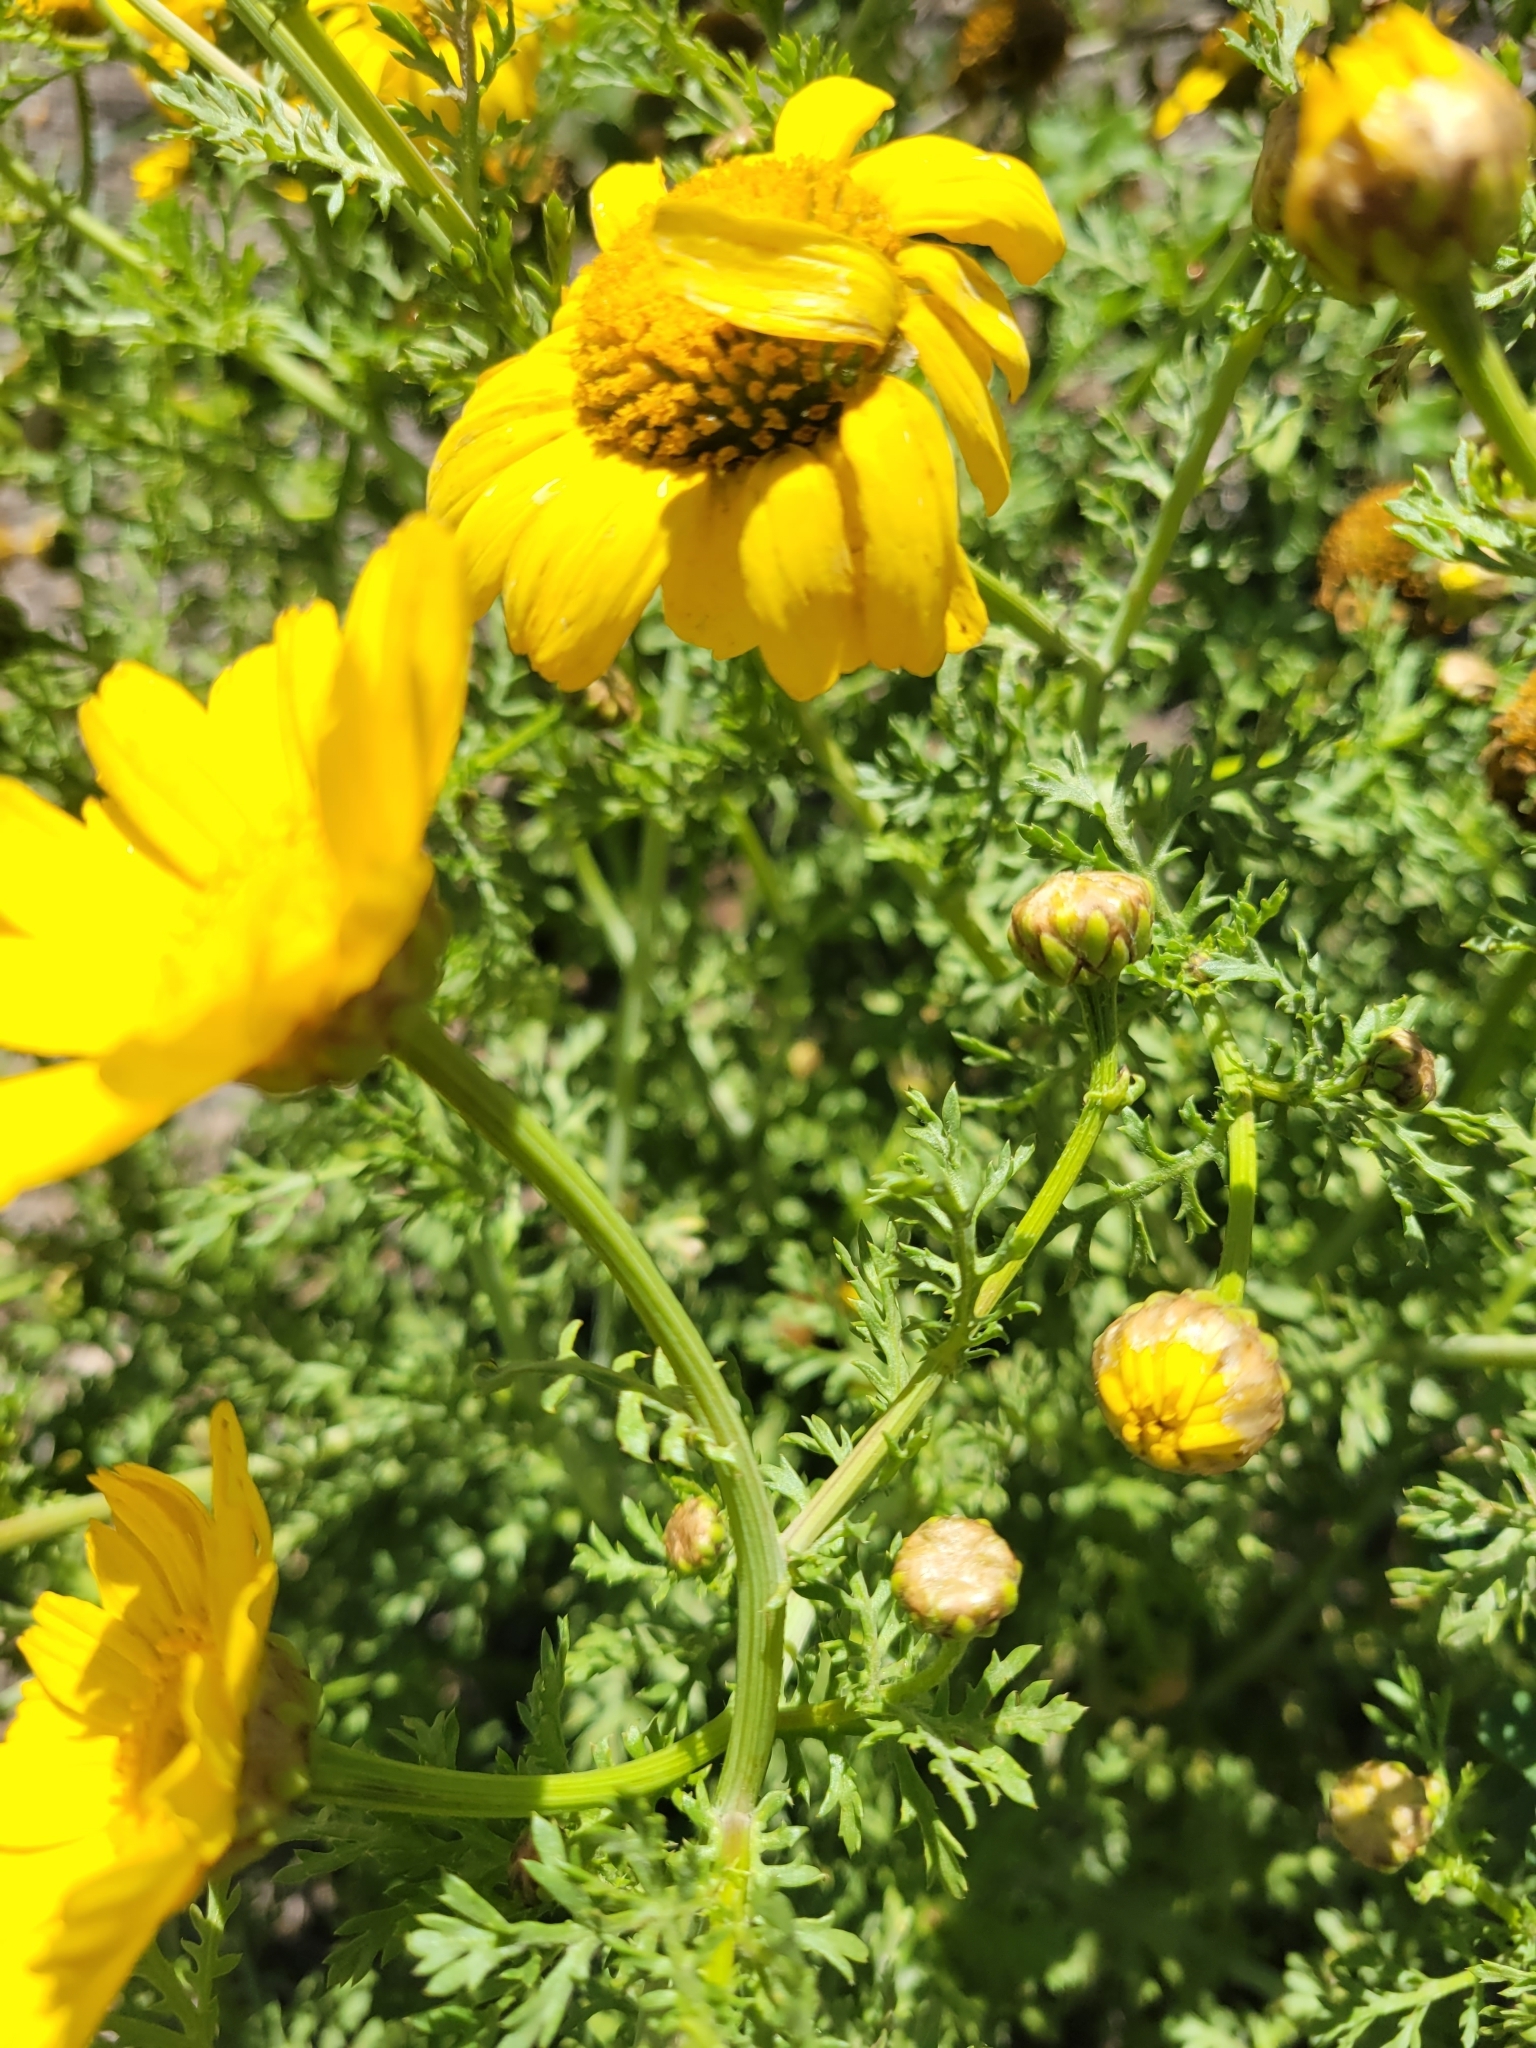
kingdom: Plantae
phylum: Tracheophyta
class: Magnoliopsida
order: Asterales
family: Asteraceae
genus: Glebionis
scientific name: Glebionis coronaria
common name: Crowndaisy
